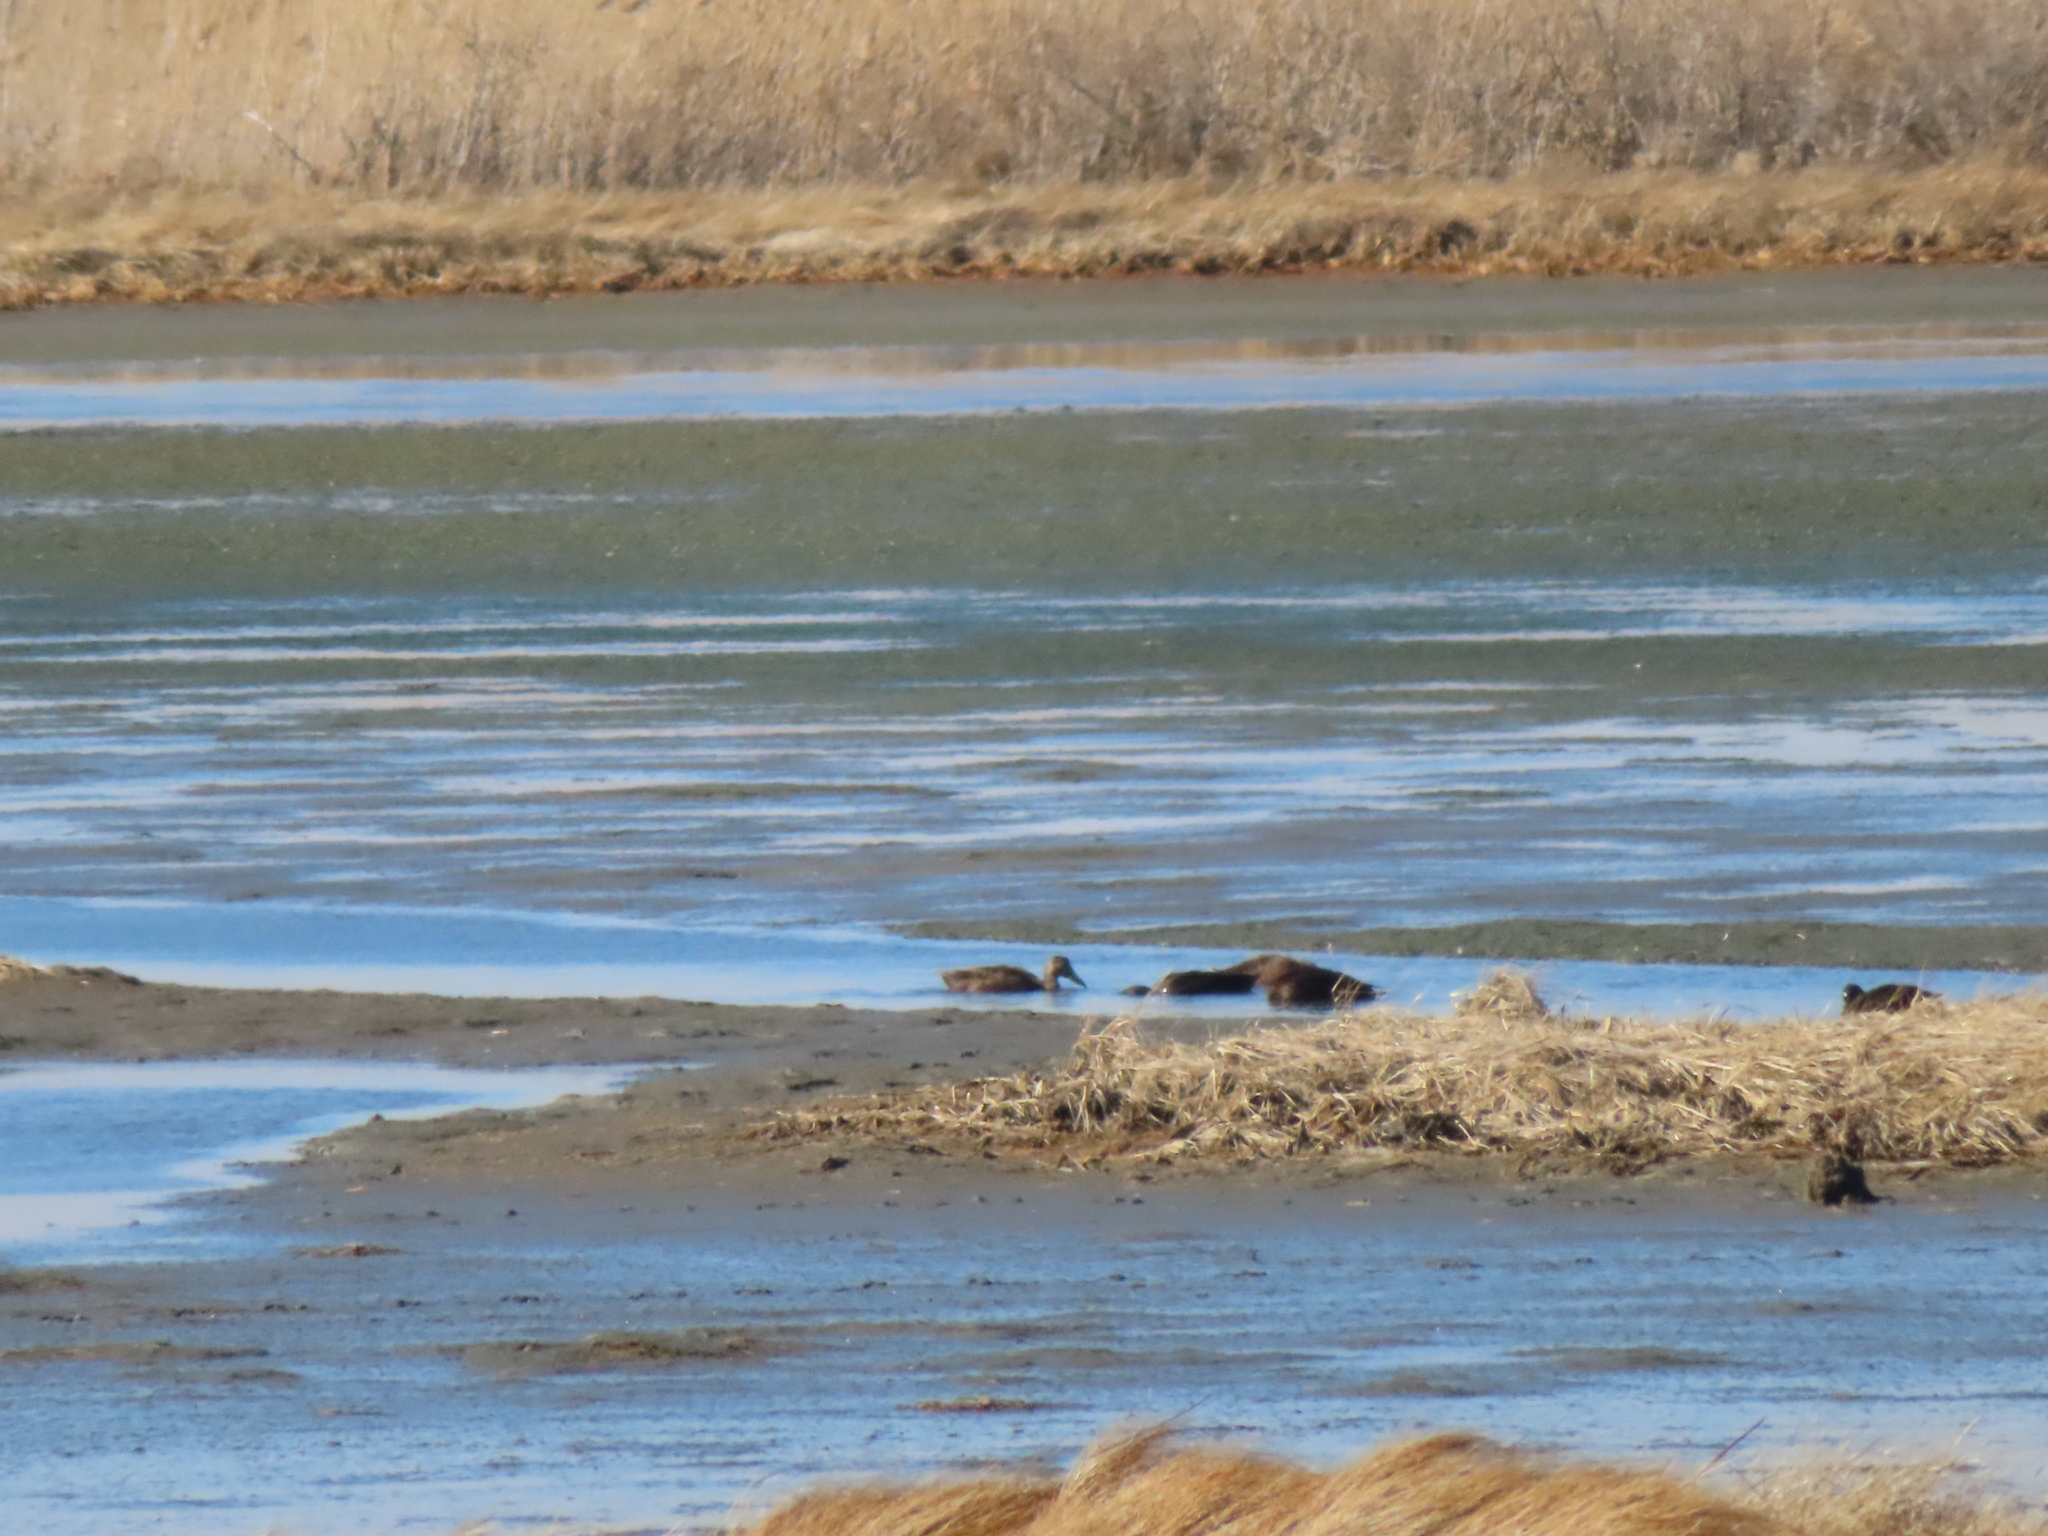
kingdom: Animalia
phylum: Chordata
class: Aves
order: Anseriformes
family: Anatidae
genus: Anas
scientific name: Anas rubripes
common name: American black duck
